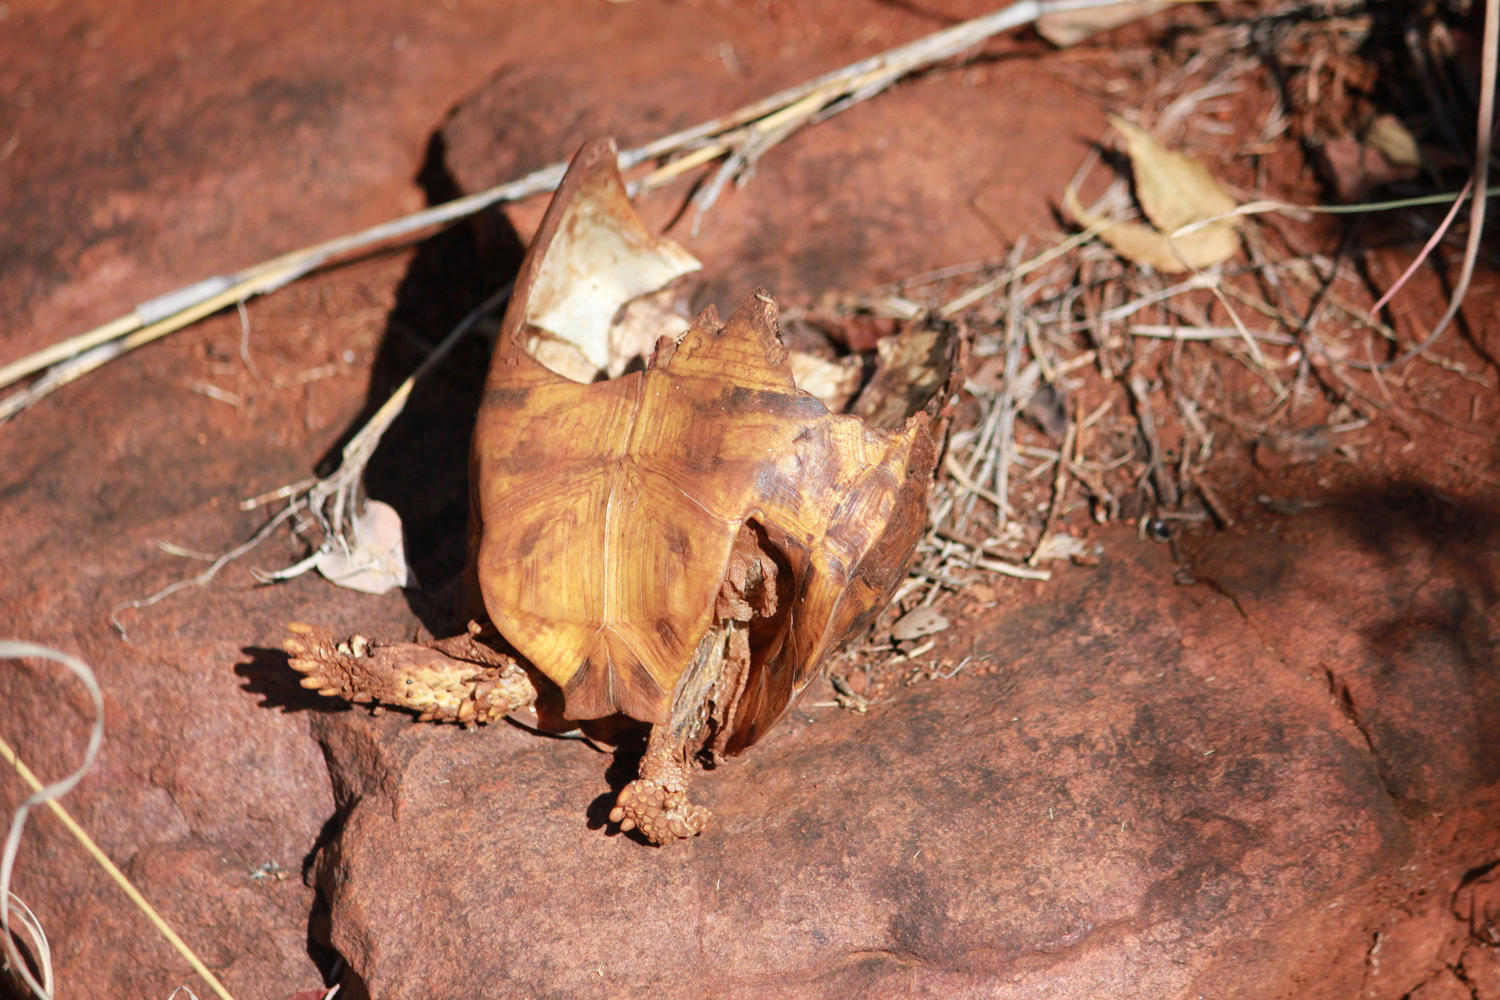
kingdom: Animalia
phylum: Chordata
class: Testudines
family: Testudinidae
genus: Kinixys
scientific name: Kinixys spekii
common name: Speke's hingeback tortoise
